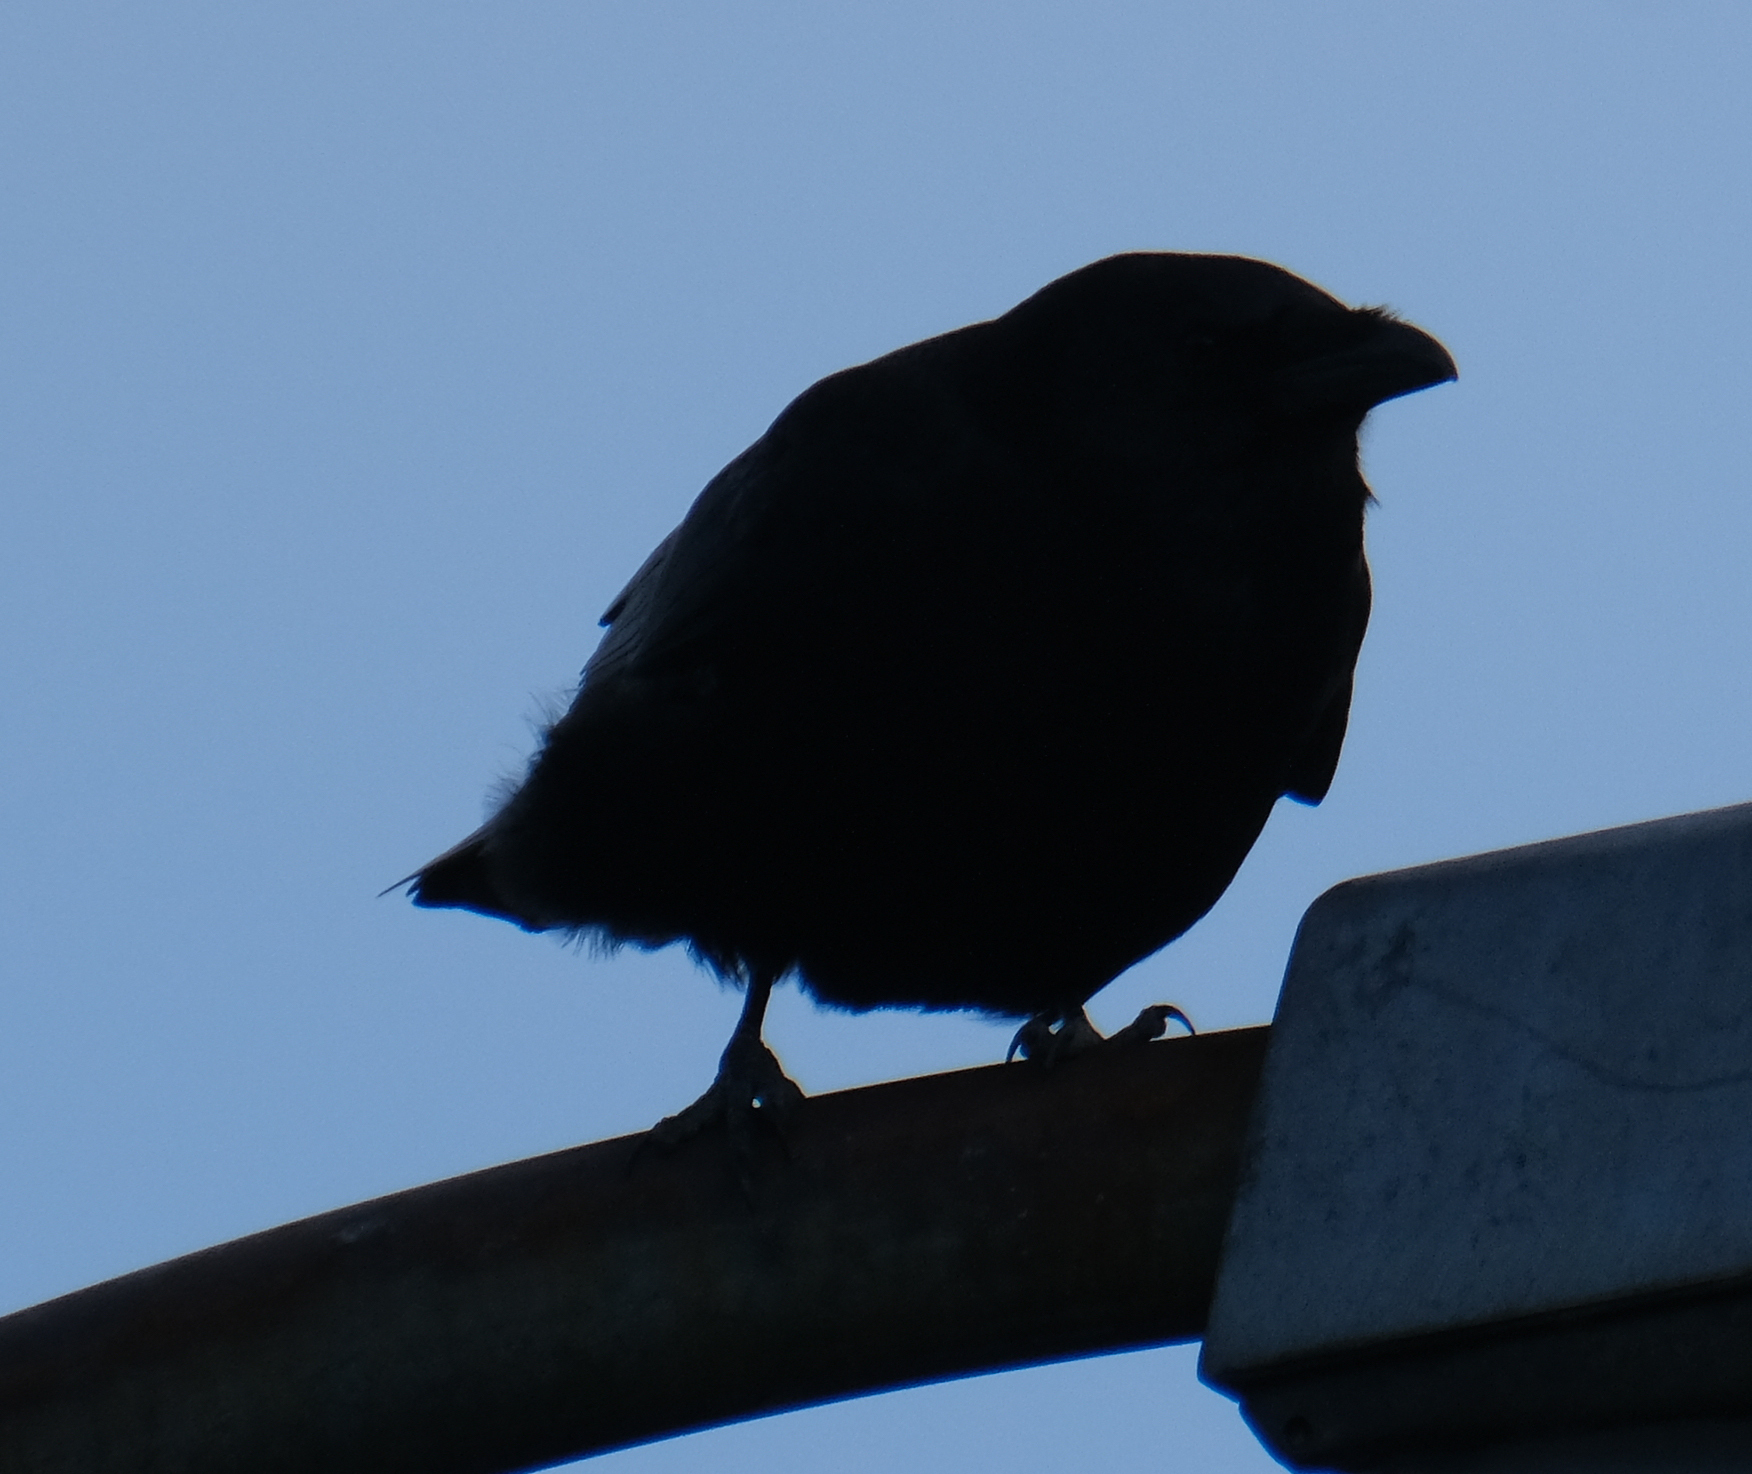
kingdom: Animalia
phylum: Chordata
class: Aves
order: Passeriformes
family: Corvidae
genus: Corvus
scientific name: Corvus brachyrhynchos
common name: American crow
